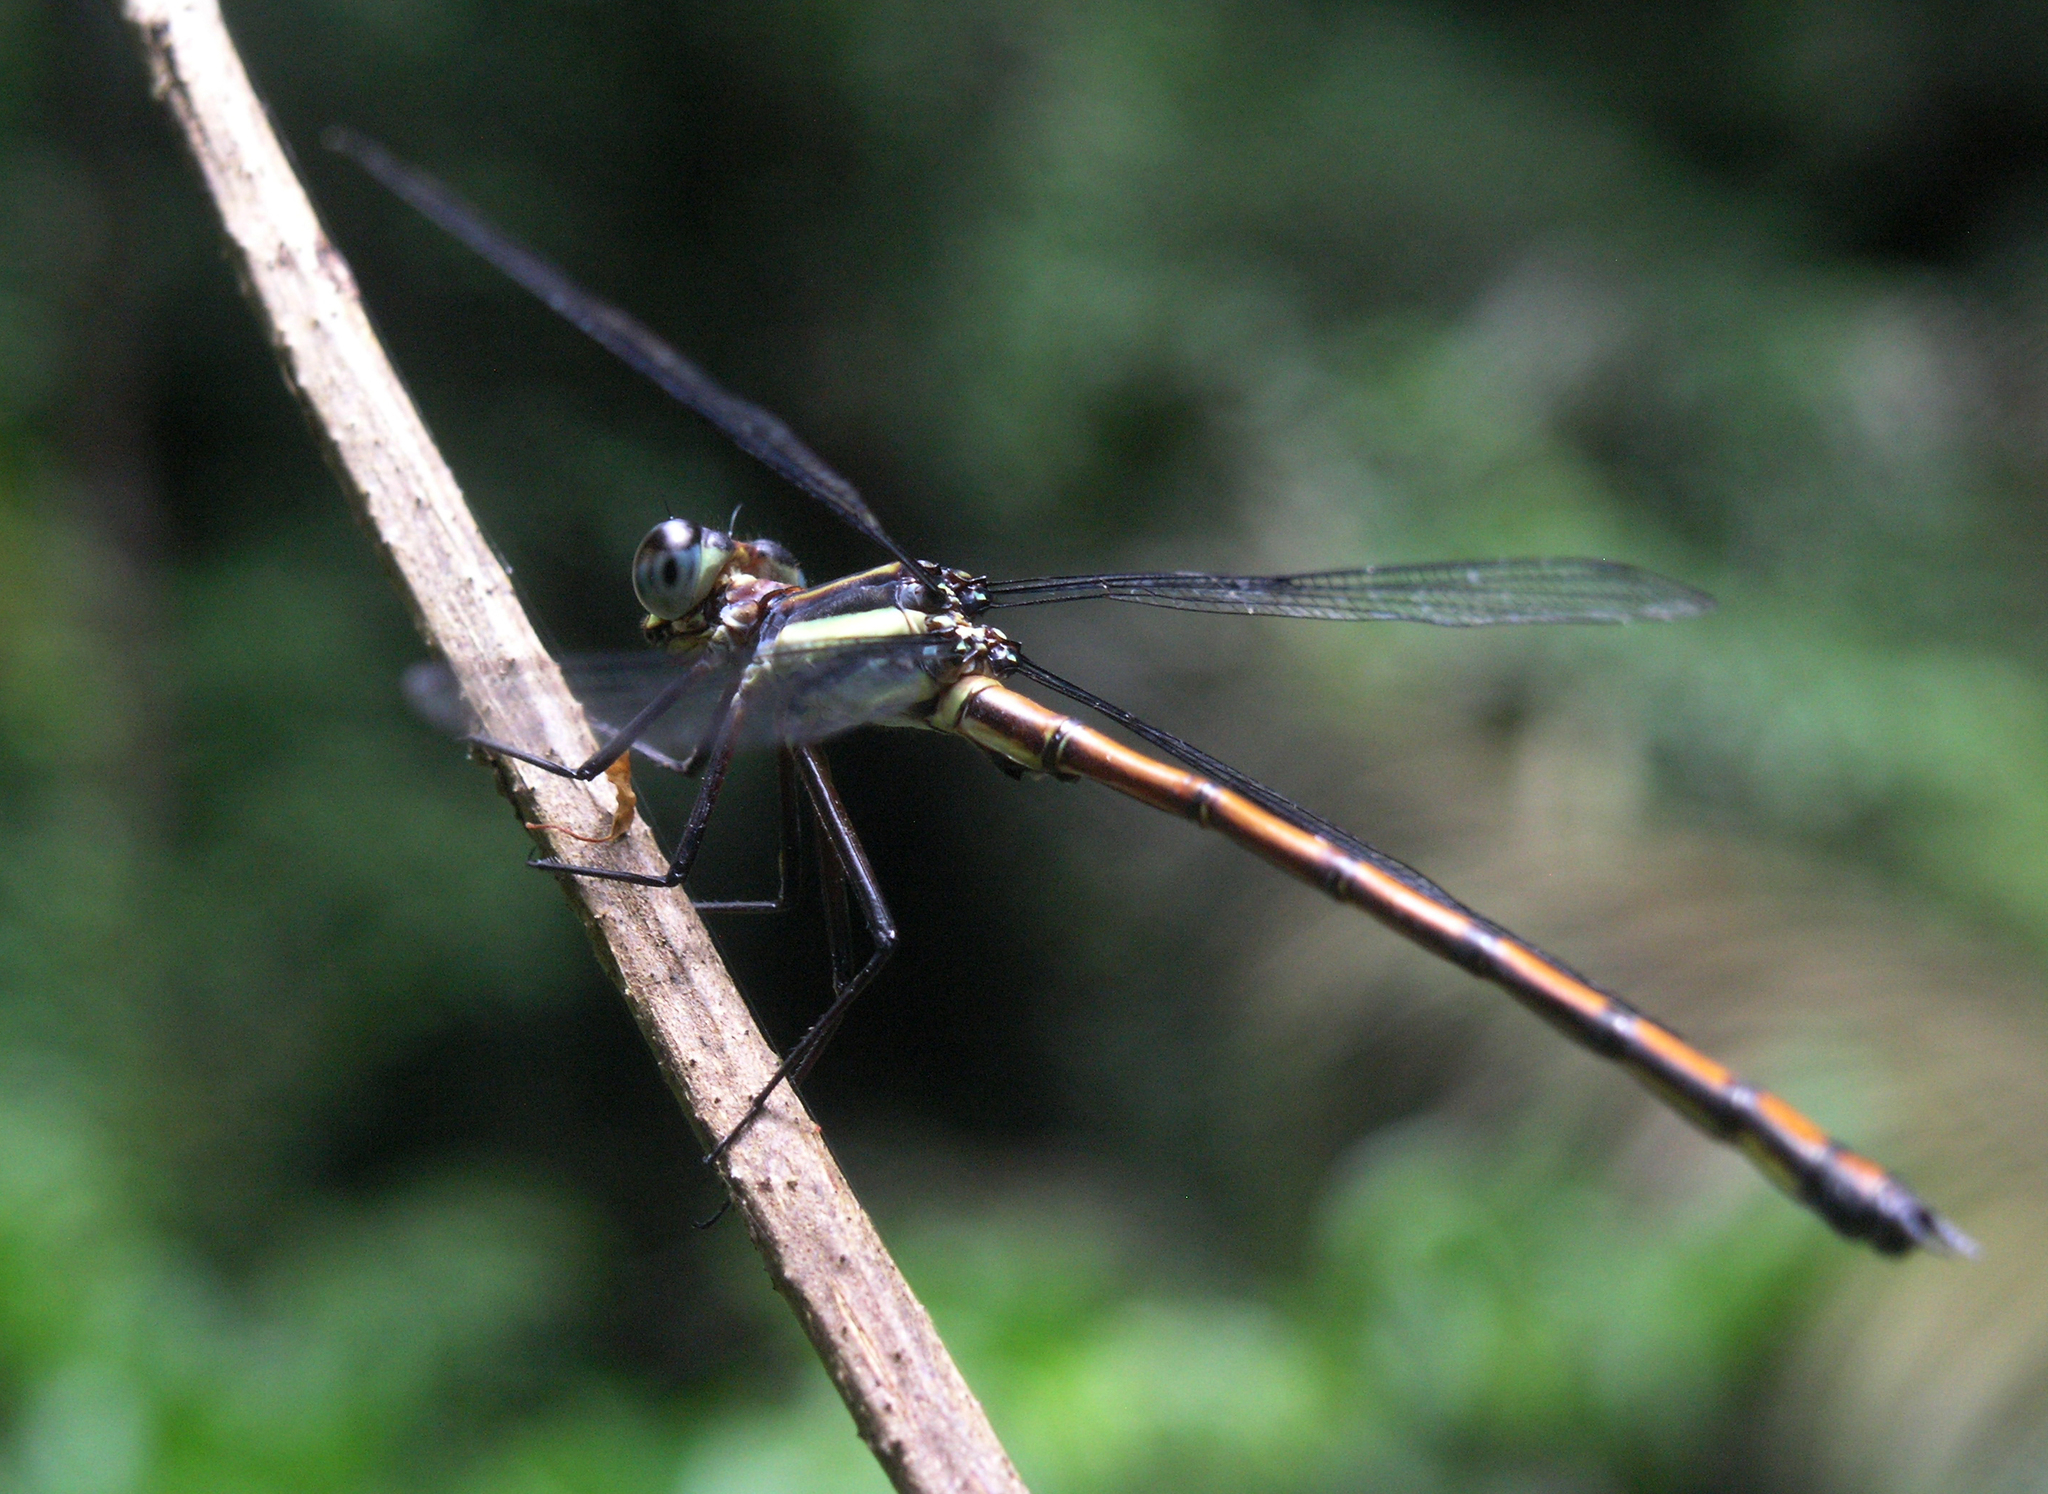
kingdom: Animalia
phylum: Arthropoda
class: Insecta
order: Odonata
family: Philogangidae
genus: Philoganga
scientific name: Philoganga loringae
